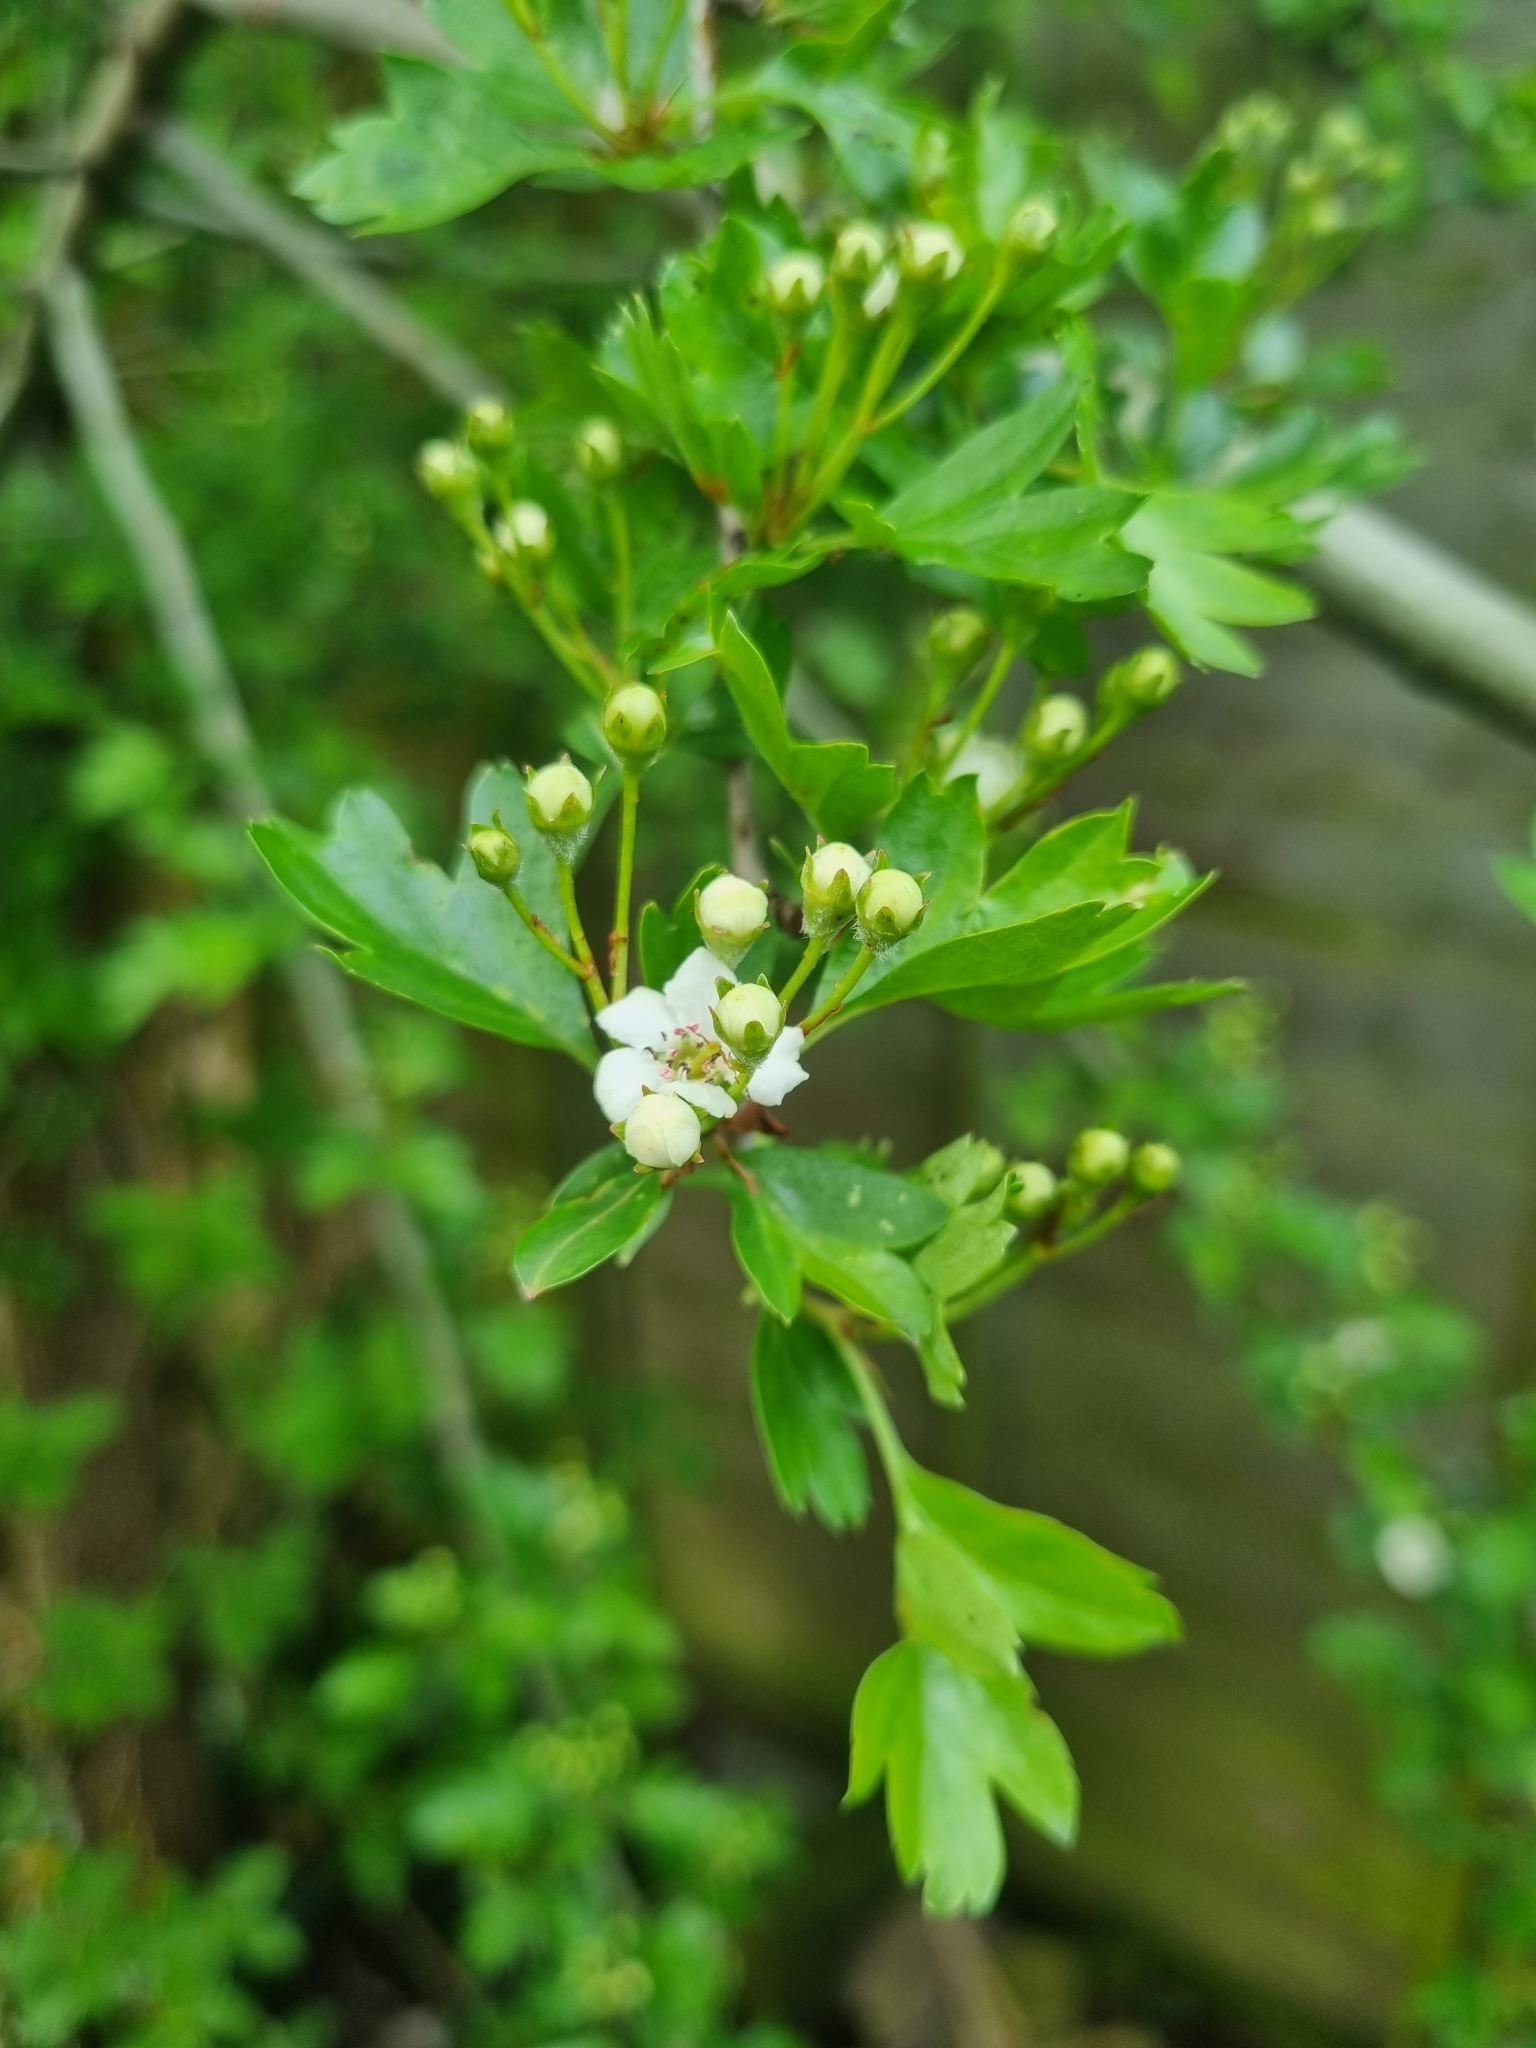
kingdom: Plantae
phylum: Tracheophyta
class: Magnoliopsida
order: Rosales
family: Rosaceae
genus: Crataegus
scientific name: Crataegus monogyna
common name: Hawthorn
